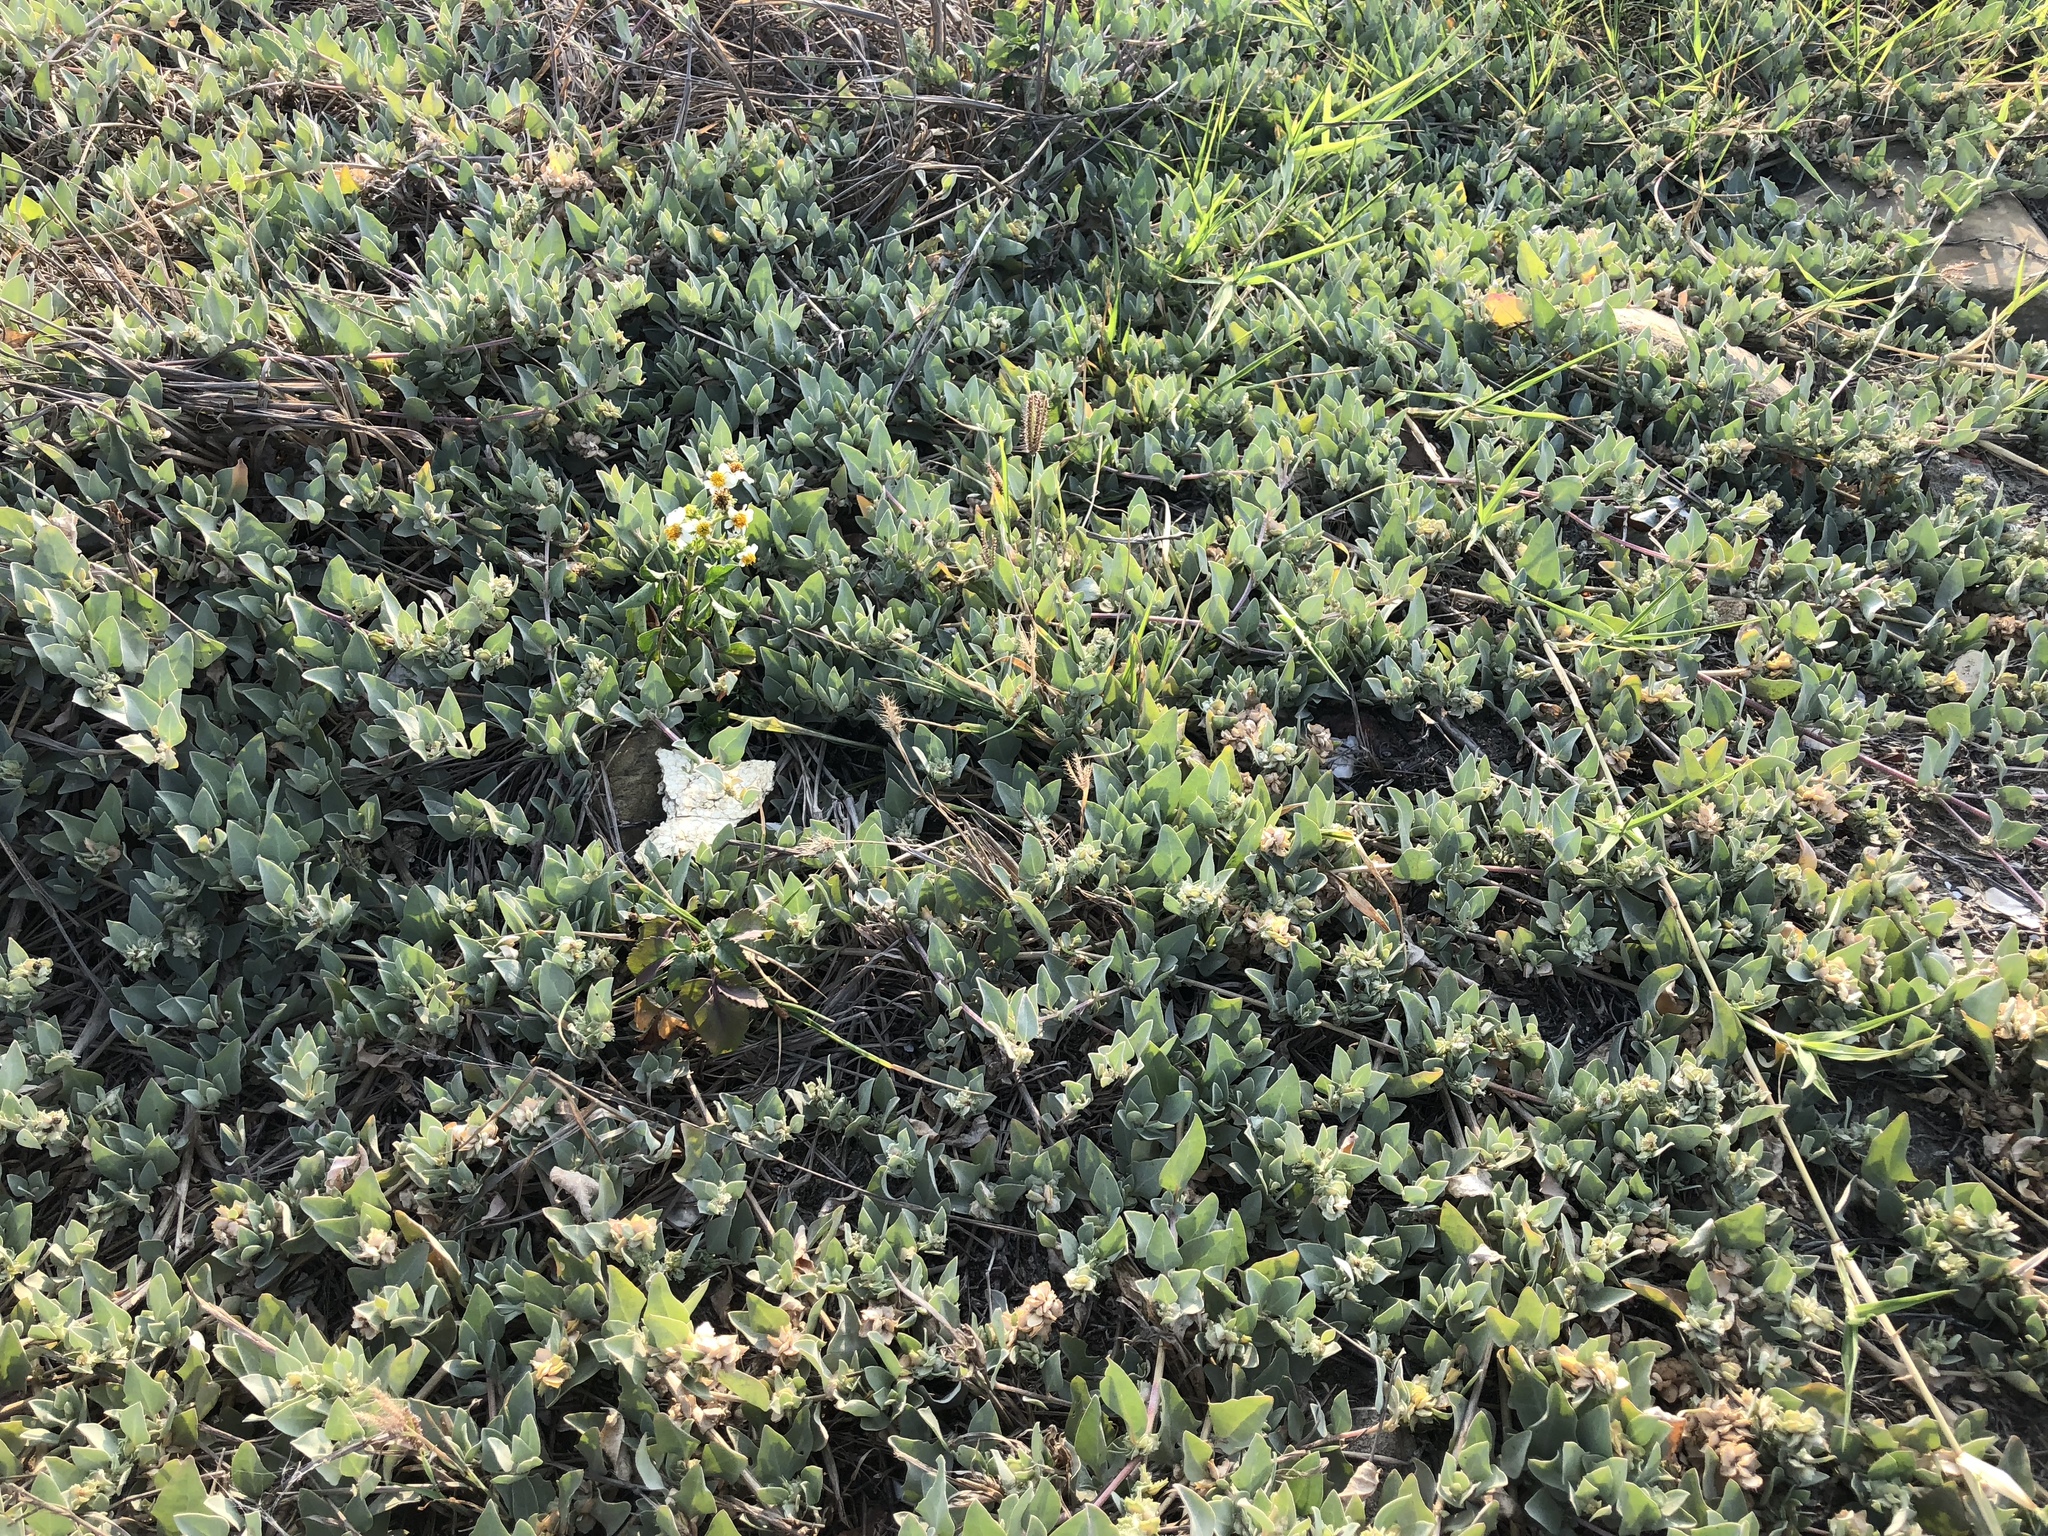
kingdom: Plantae
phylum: Tracheophyta
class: Magnoliopsida
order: Caryophyllales
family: Amaranthaceae
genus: Atriplex
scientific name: Atriplex maximowicziana
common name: Maximowicz's saltbush
